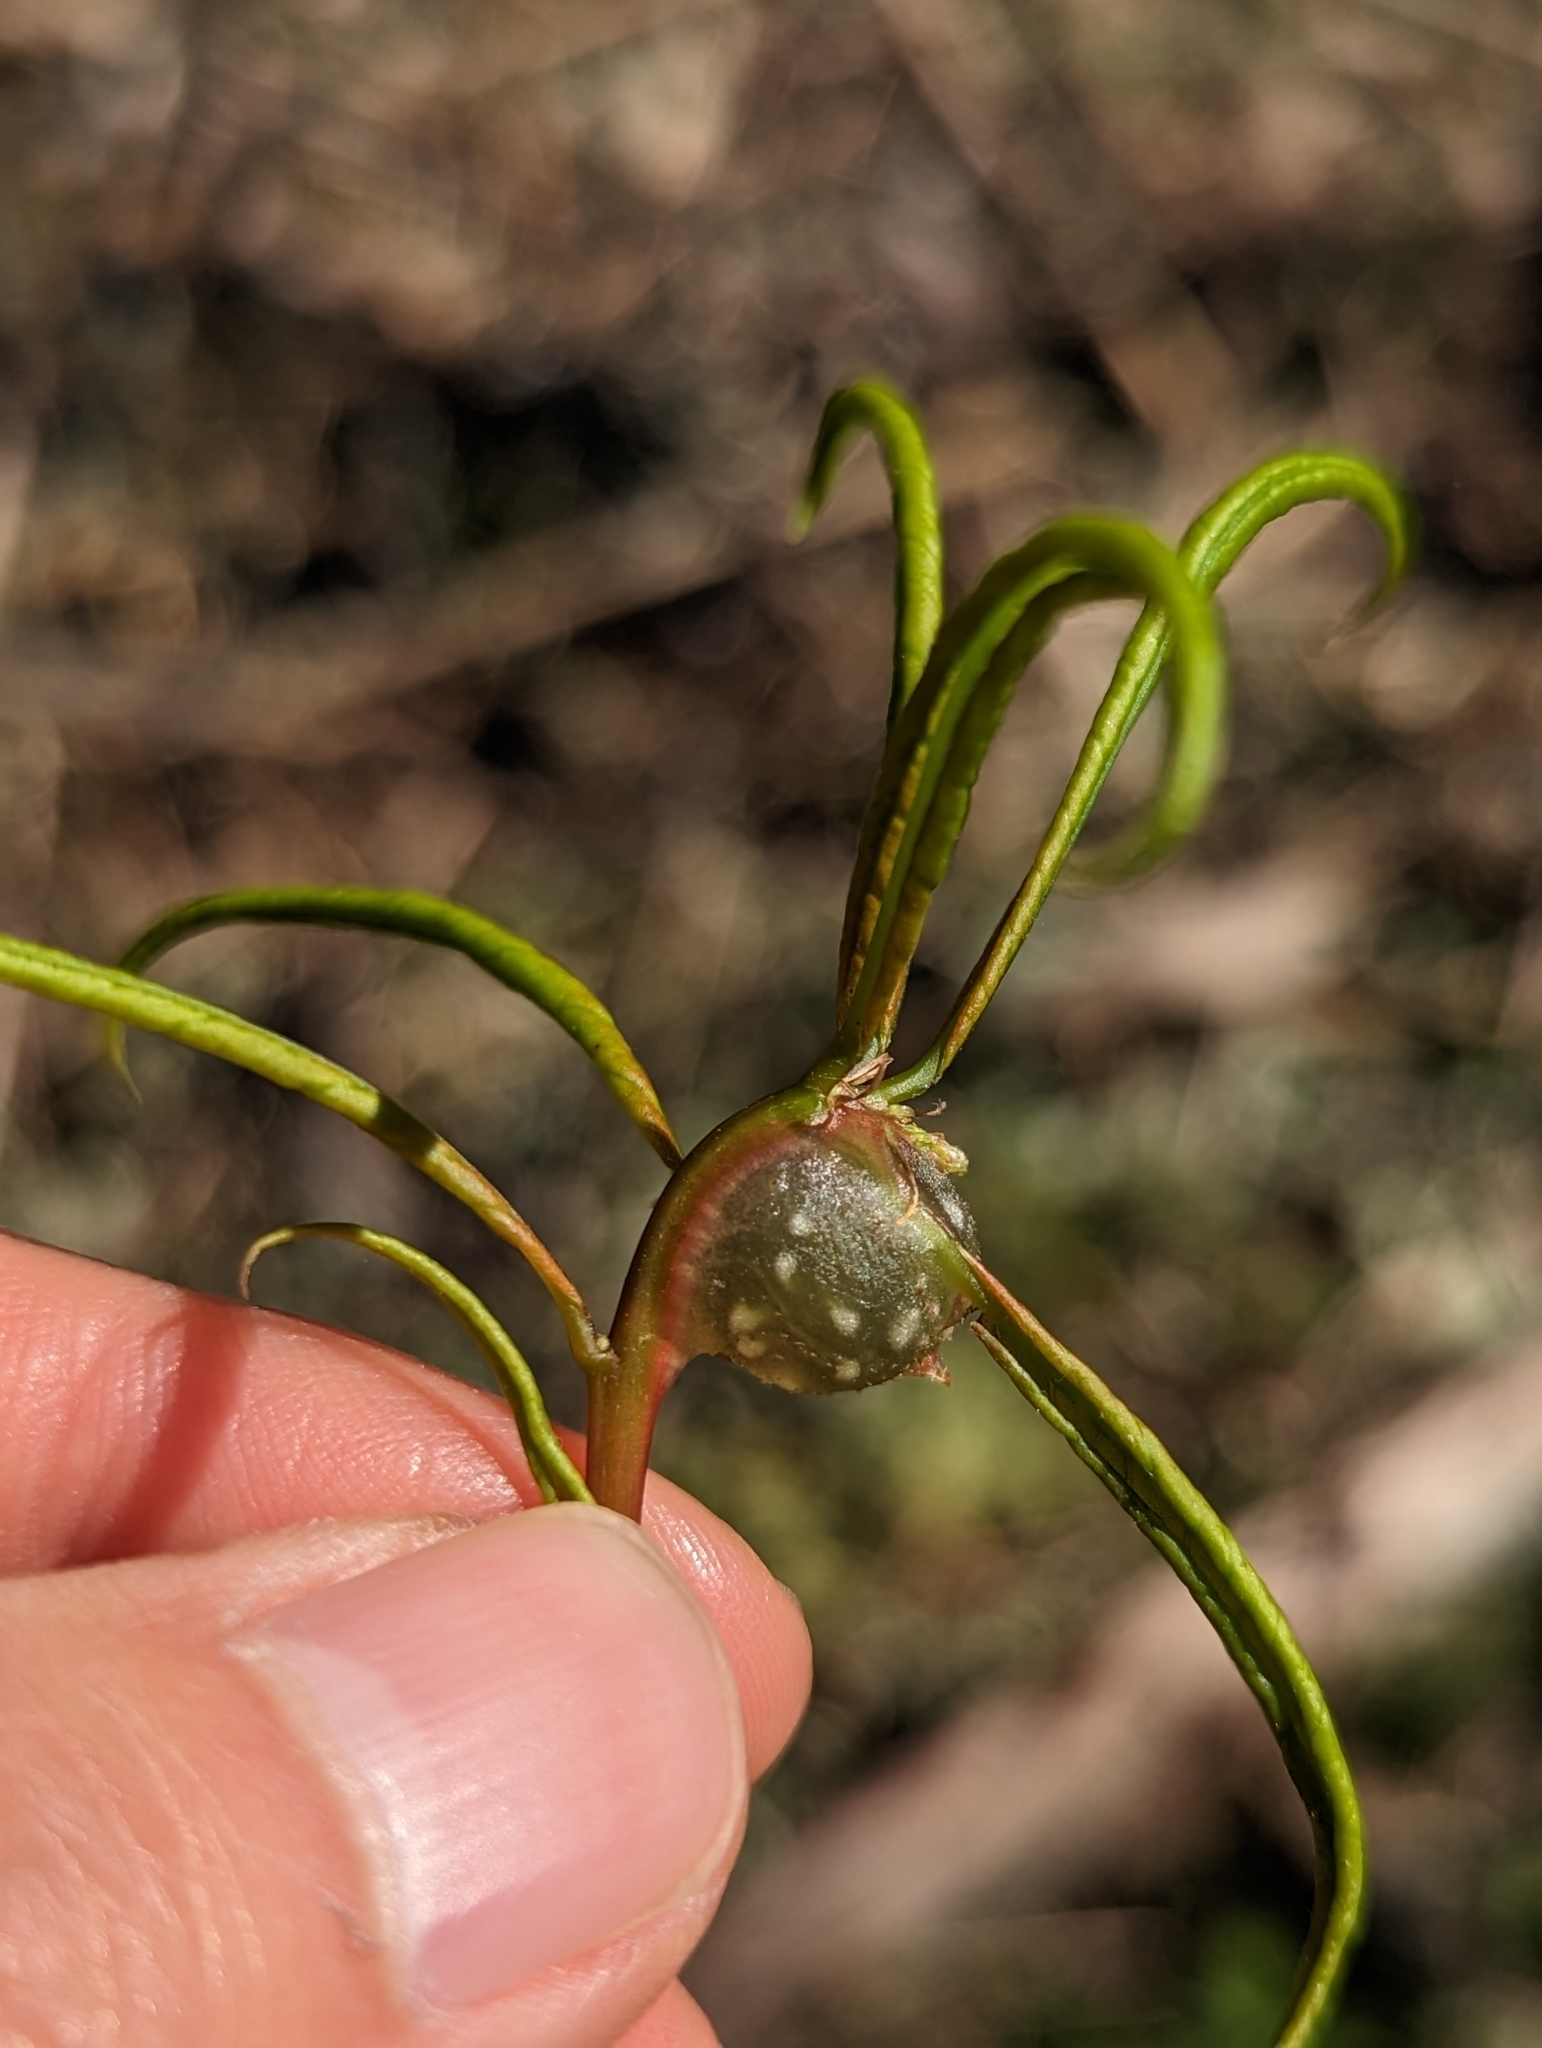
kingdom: Animalia
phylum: Arthropoda
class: Insecta
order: Hymenoptera
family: Cynipidae
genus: Dryocosmus
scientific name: Dryocosmus
